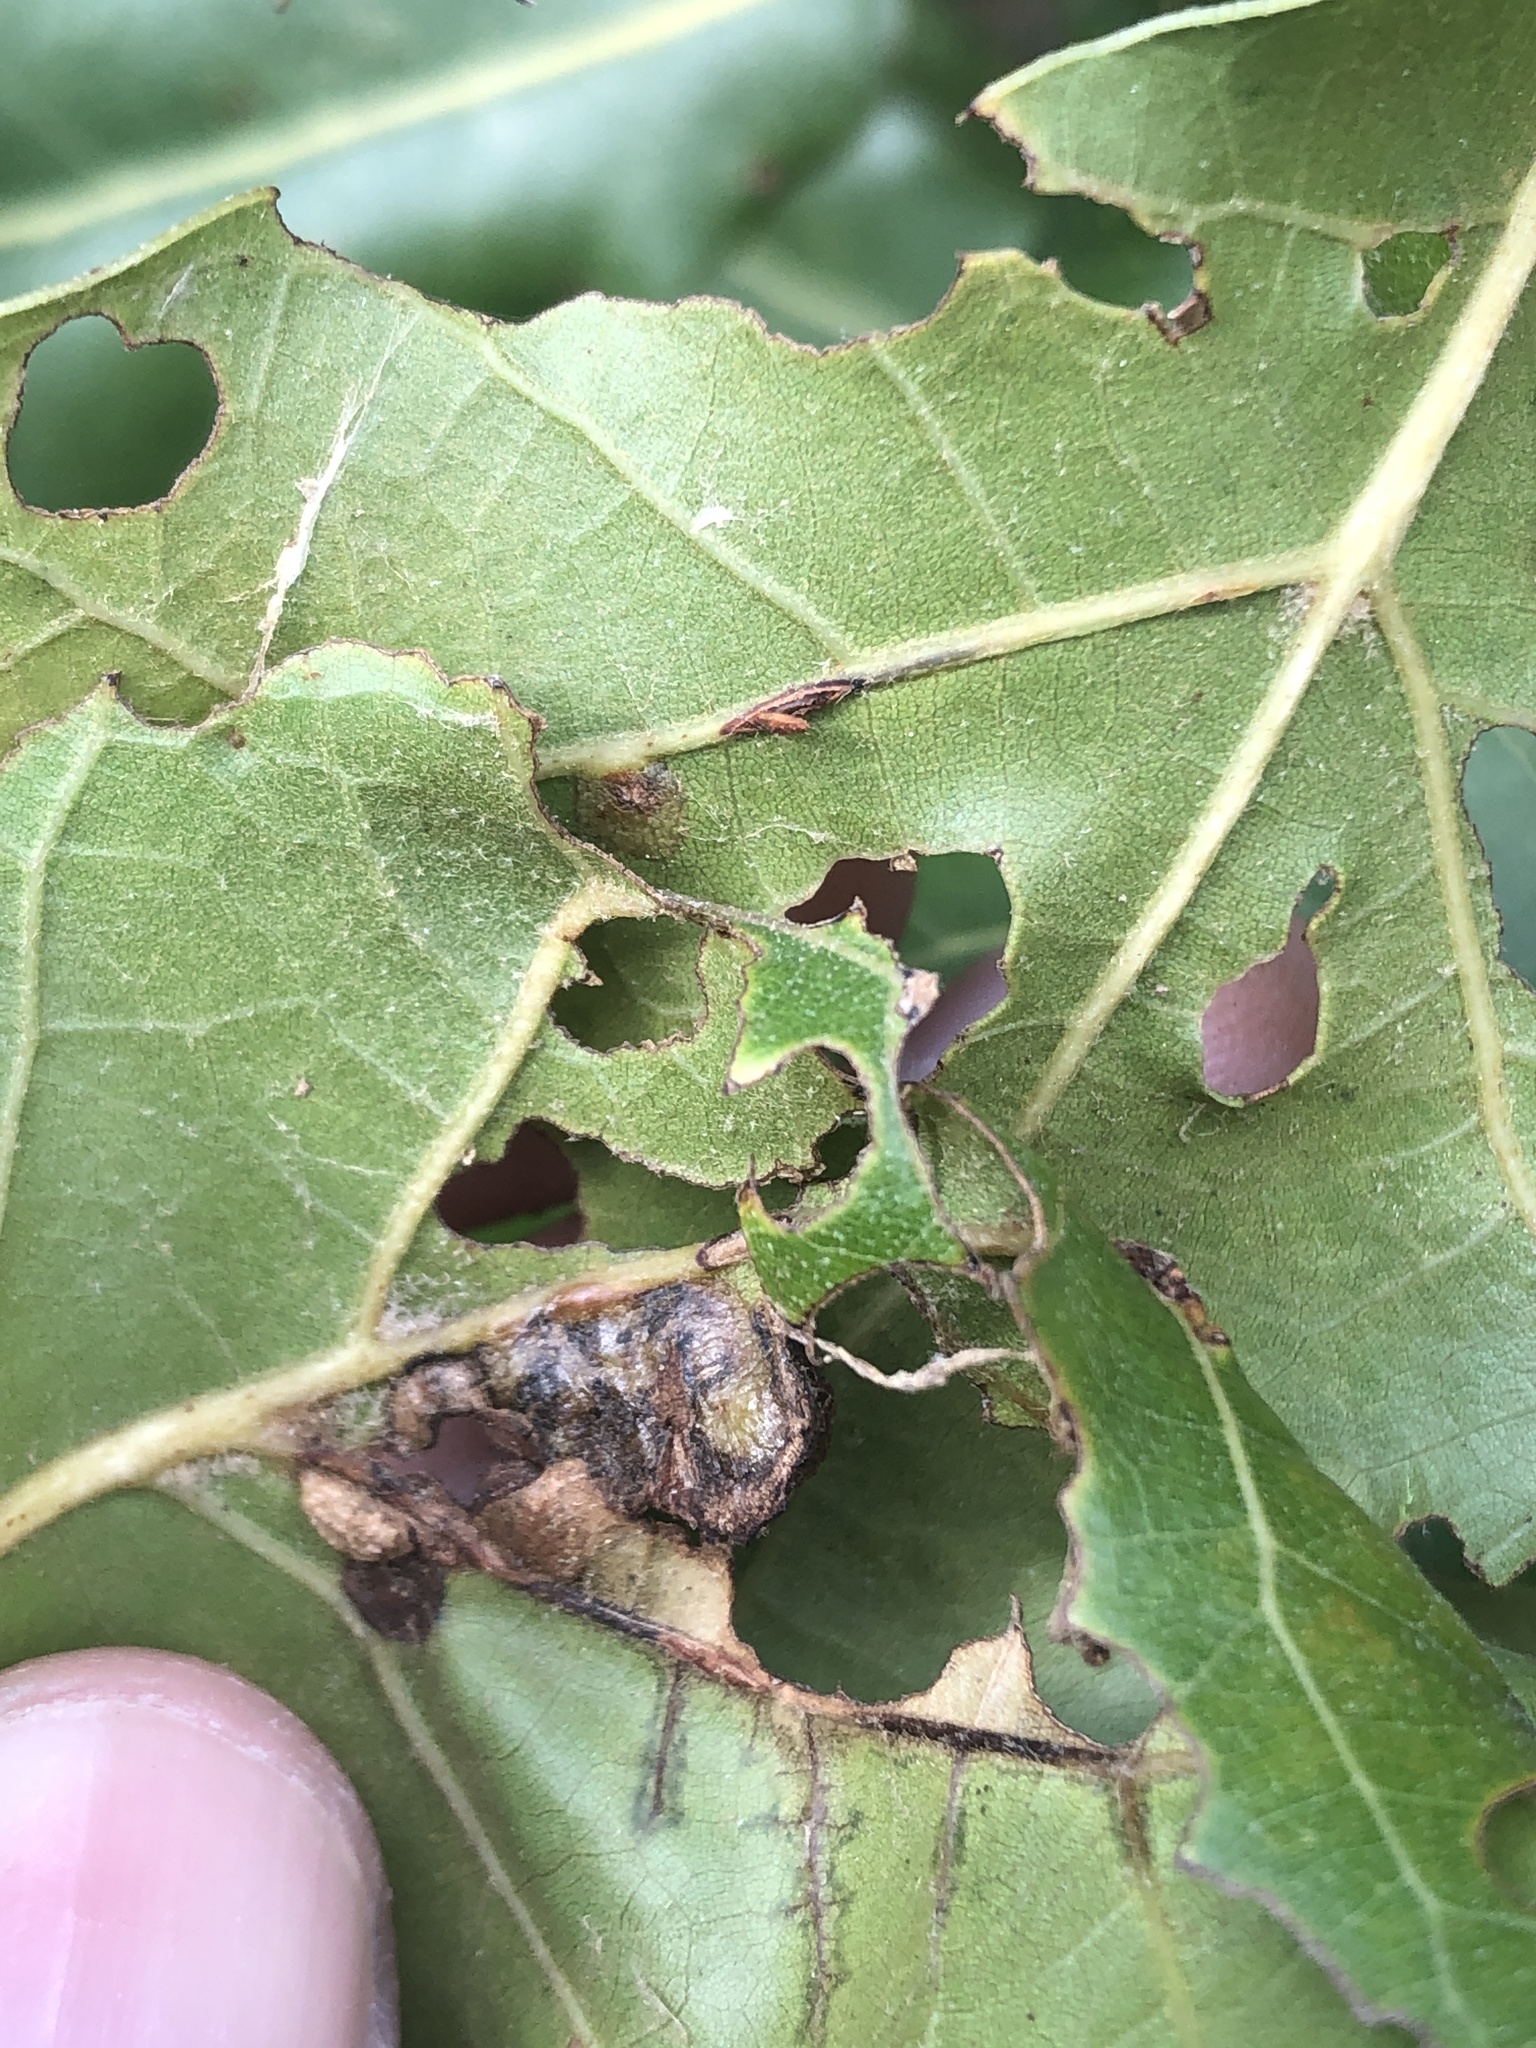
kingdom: Animalia
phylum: Arthropoda
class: Insecta
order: Diptera
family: Cecidomyiidae
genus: Polystepha
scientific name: Polystepha pilulae
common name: Oak leaf gall midge
